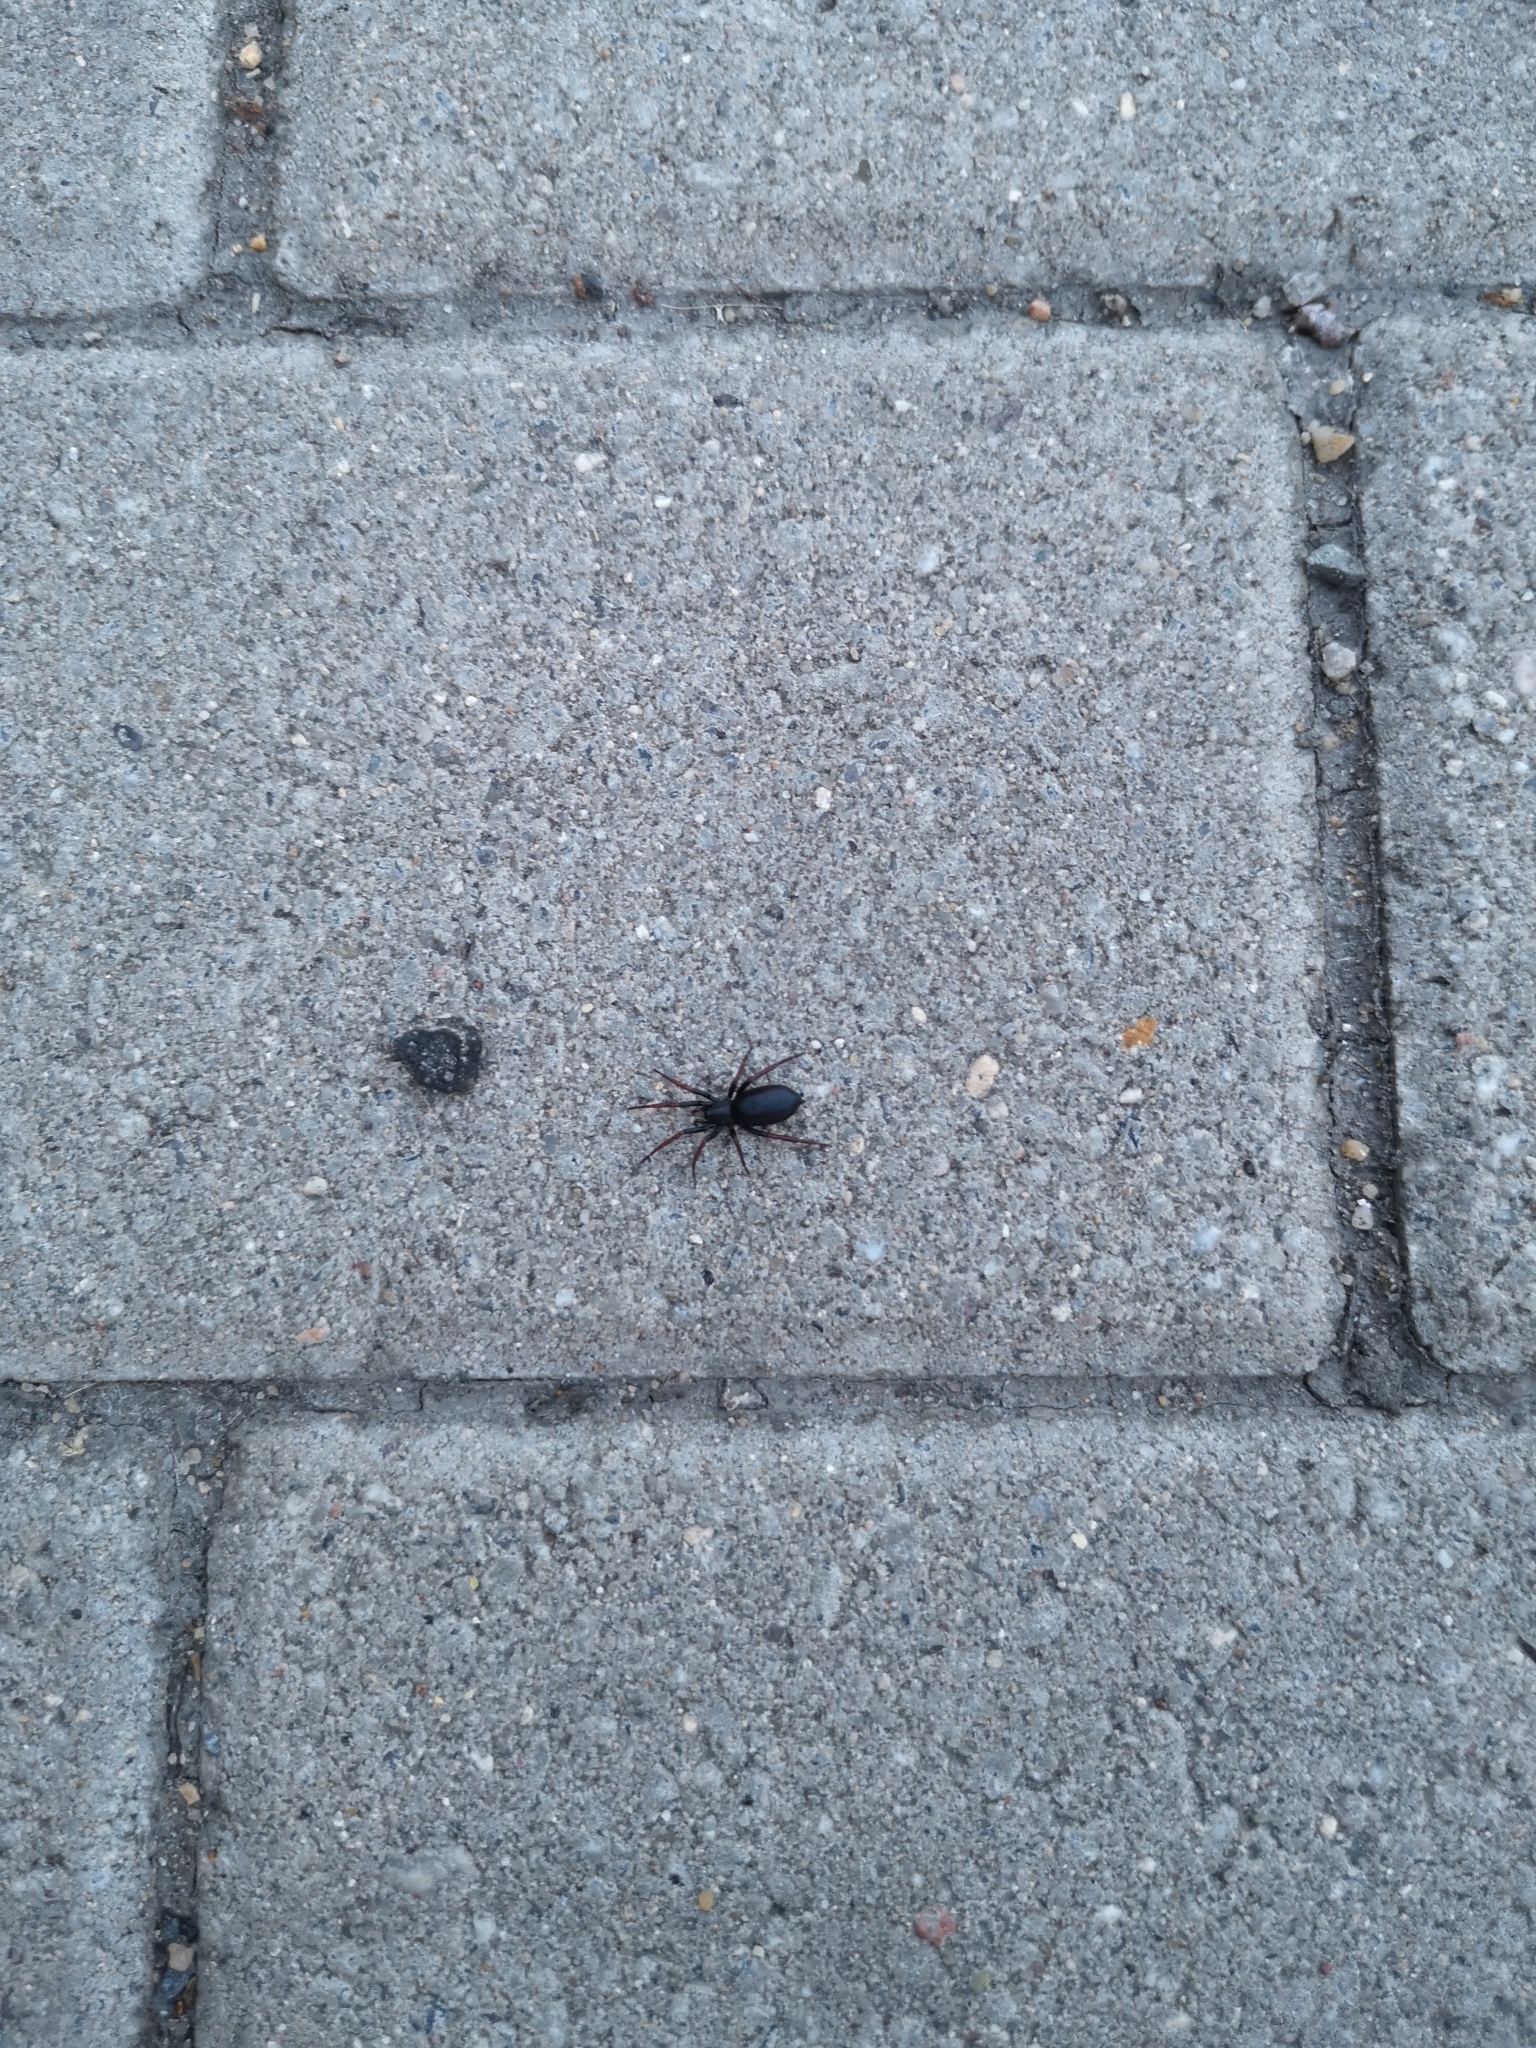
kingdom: Animalia
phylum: Arthropoda
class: Arachnida
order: Araneae
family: Gnaphosidae
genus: Trachyzelotes
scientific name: Trachyzelotes pedestris
